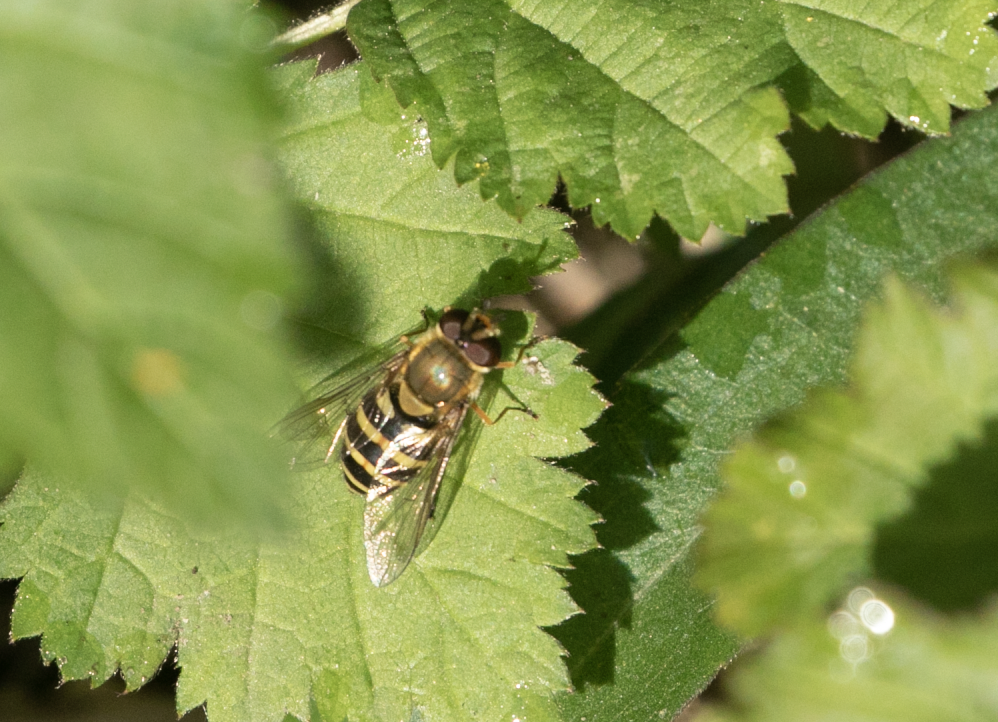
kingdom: Animalia
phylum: Arthropoda
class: Insecta
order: Diptera
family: Syrphidae
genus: Syrphus
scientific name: Syrphus
